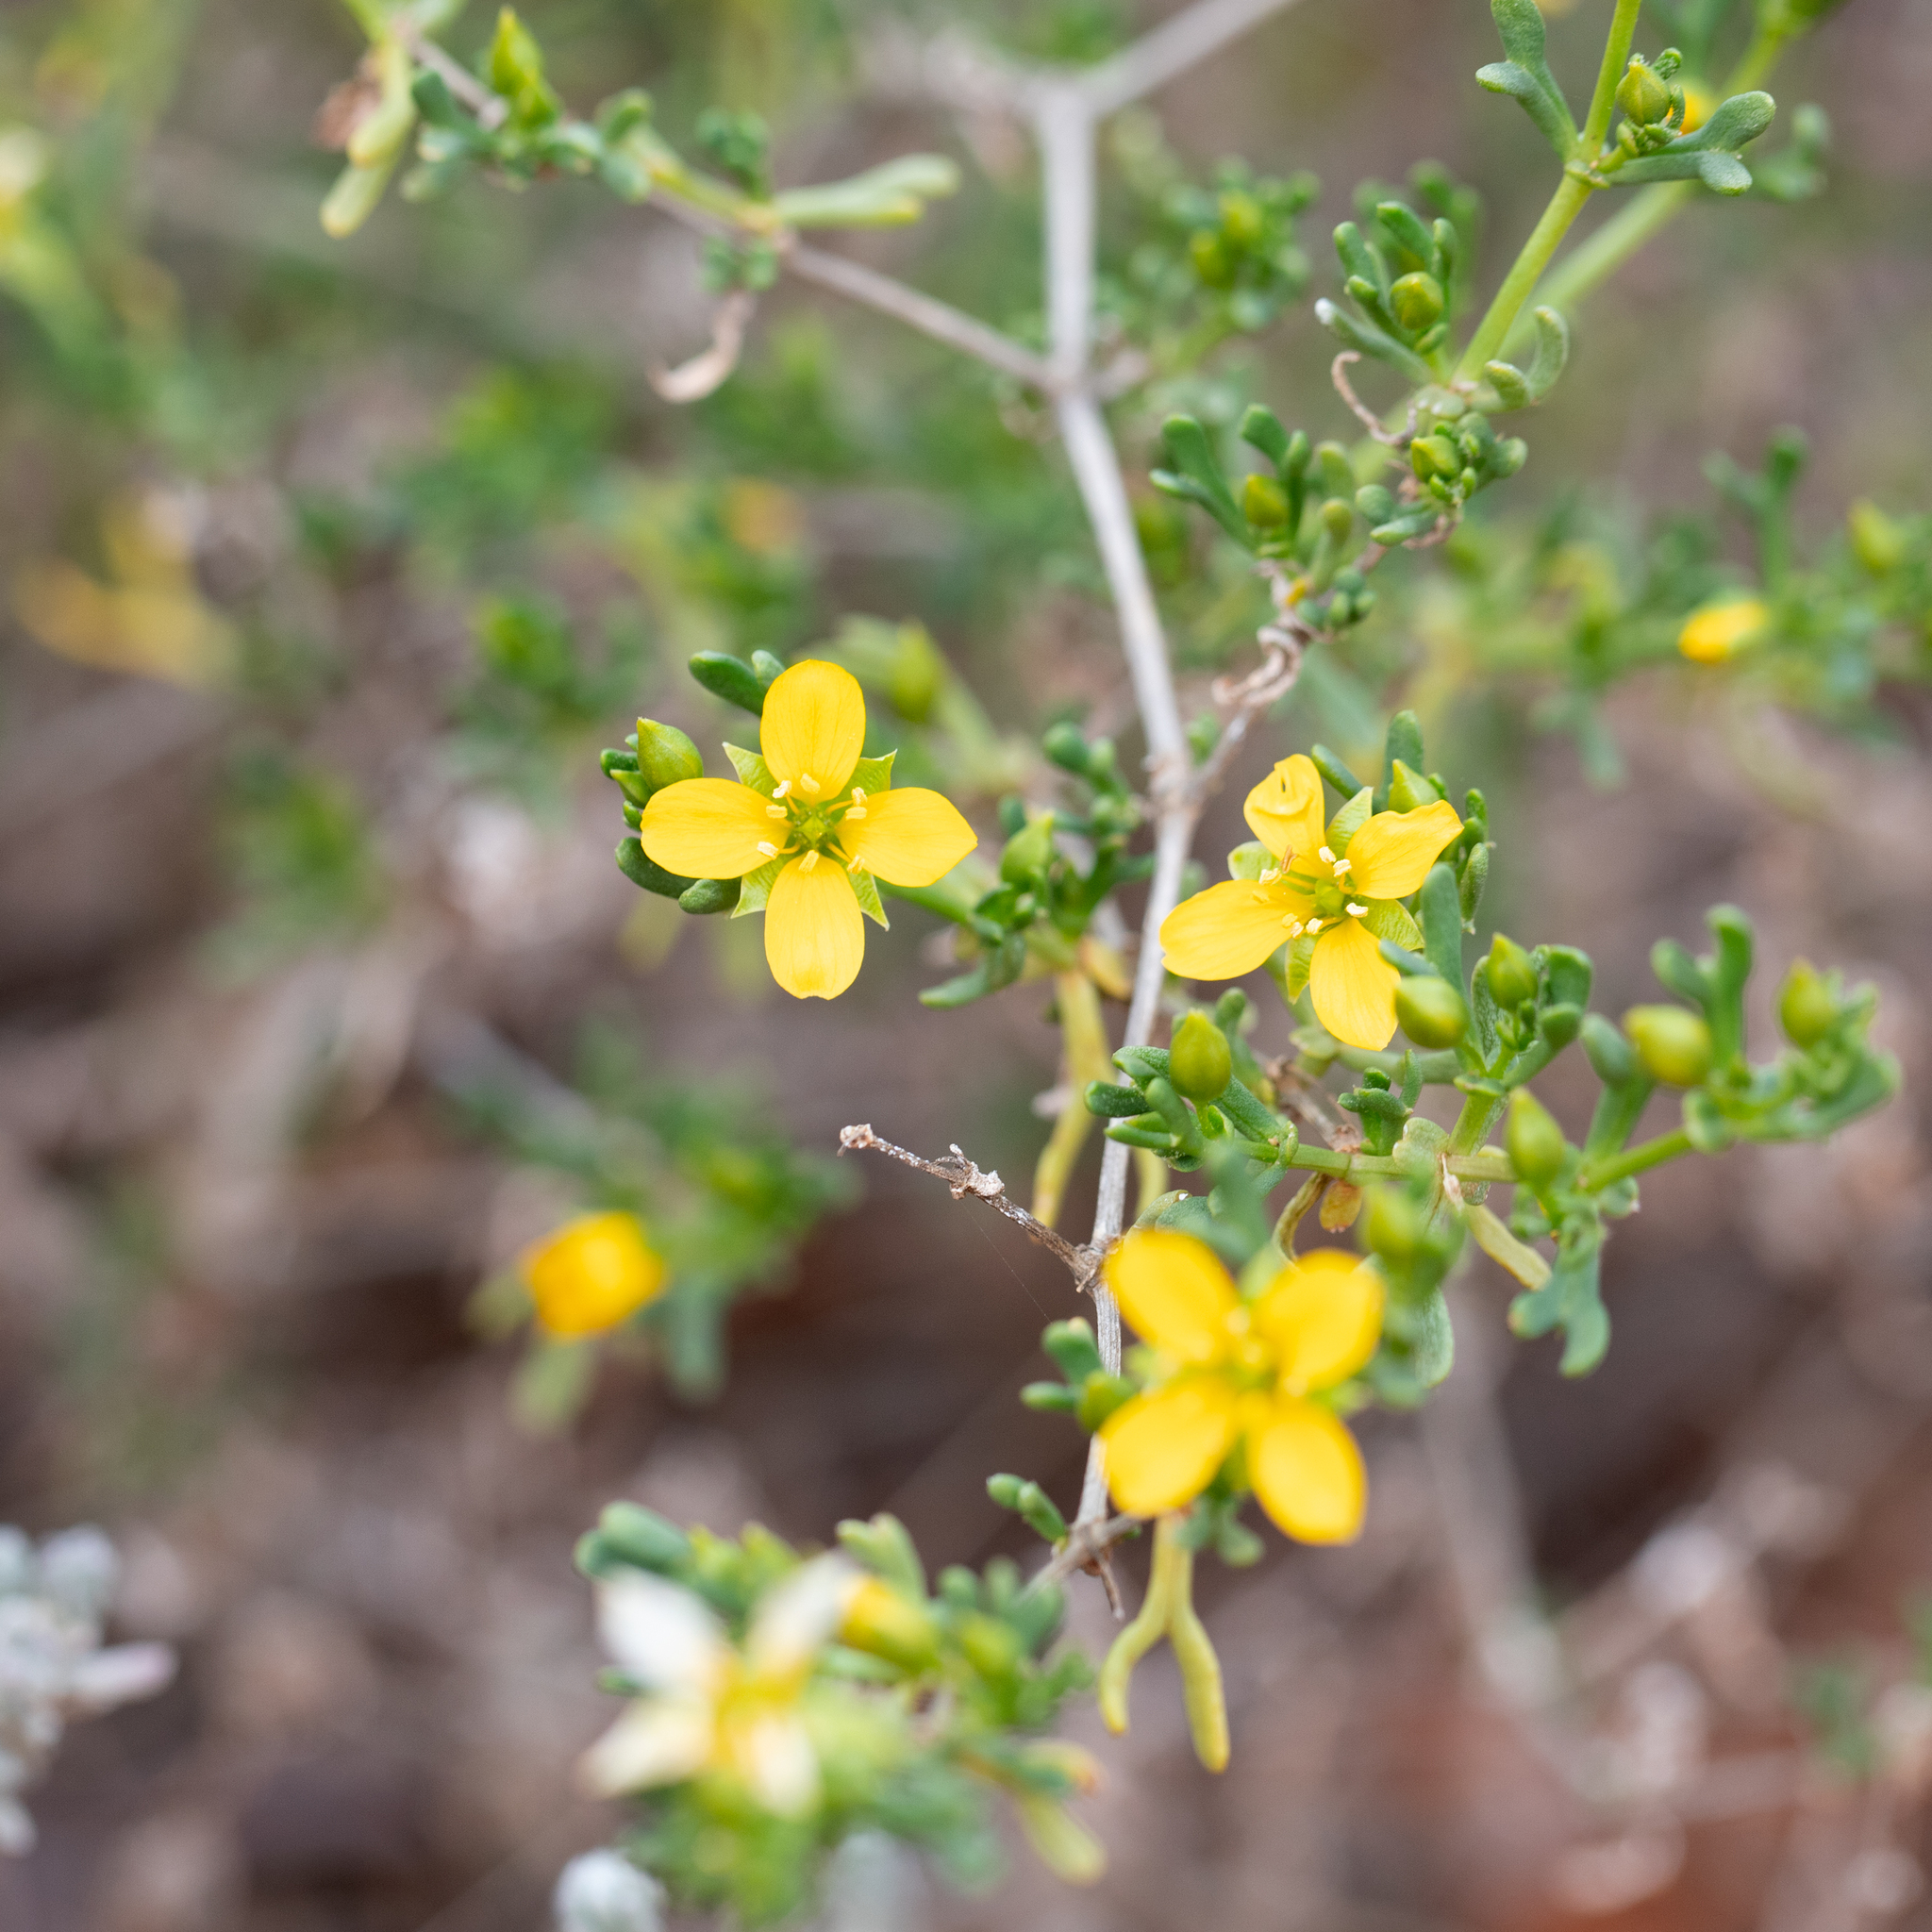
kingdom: Plantae
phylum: Tracheophyta
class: Magnoliopsida
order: Zygophyllales
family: Zygophyllaceae
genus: Roepera
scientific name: Roepera aurantiaca
